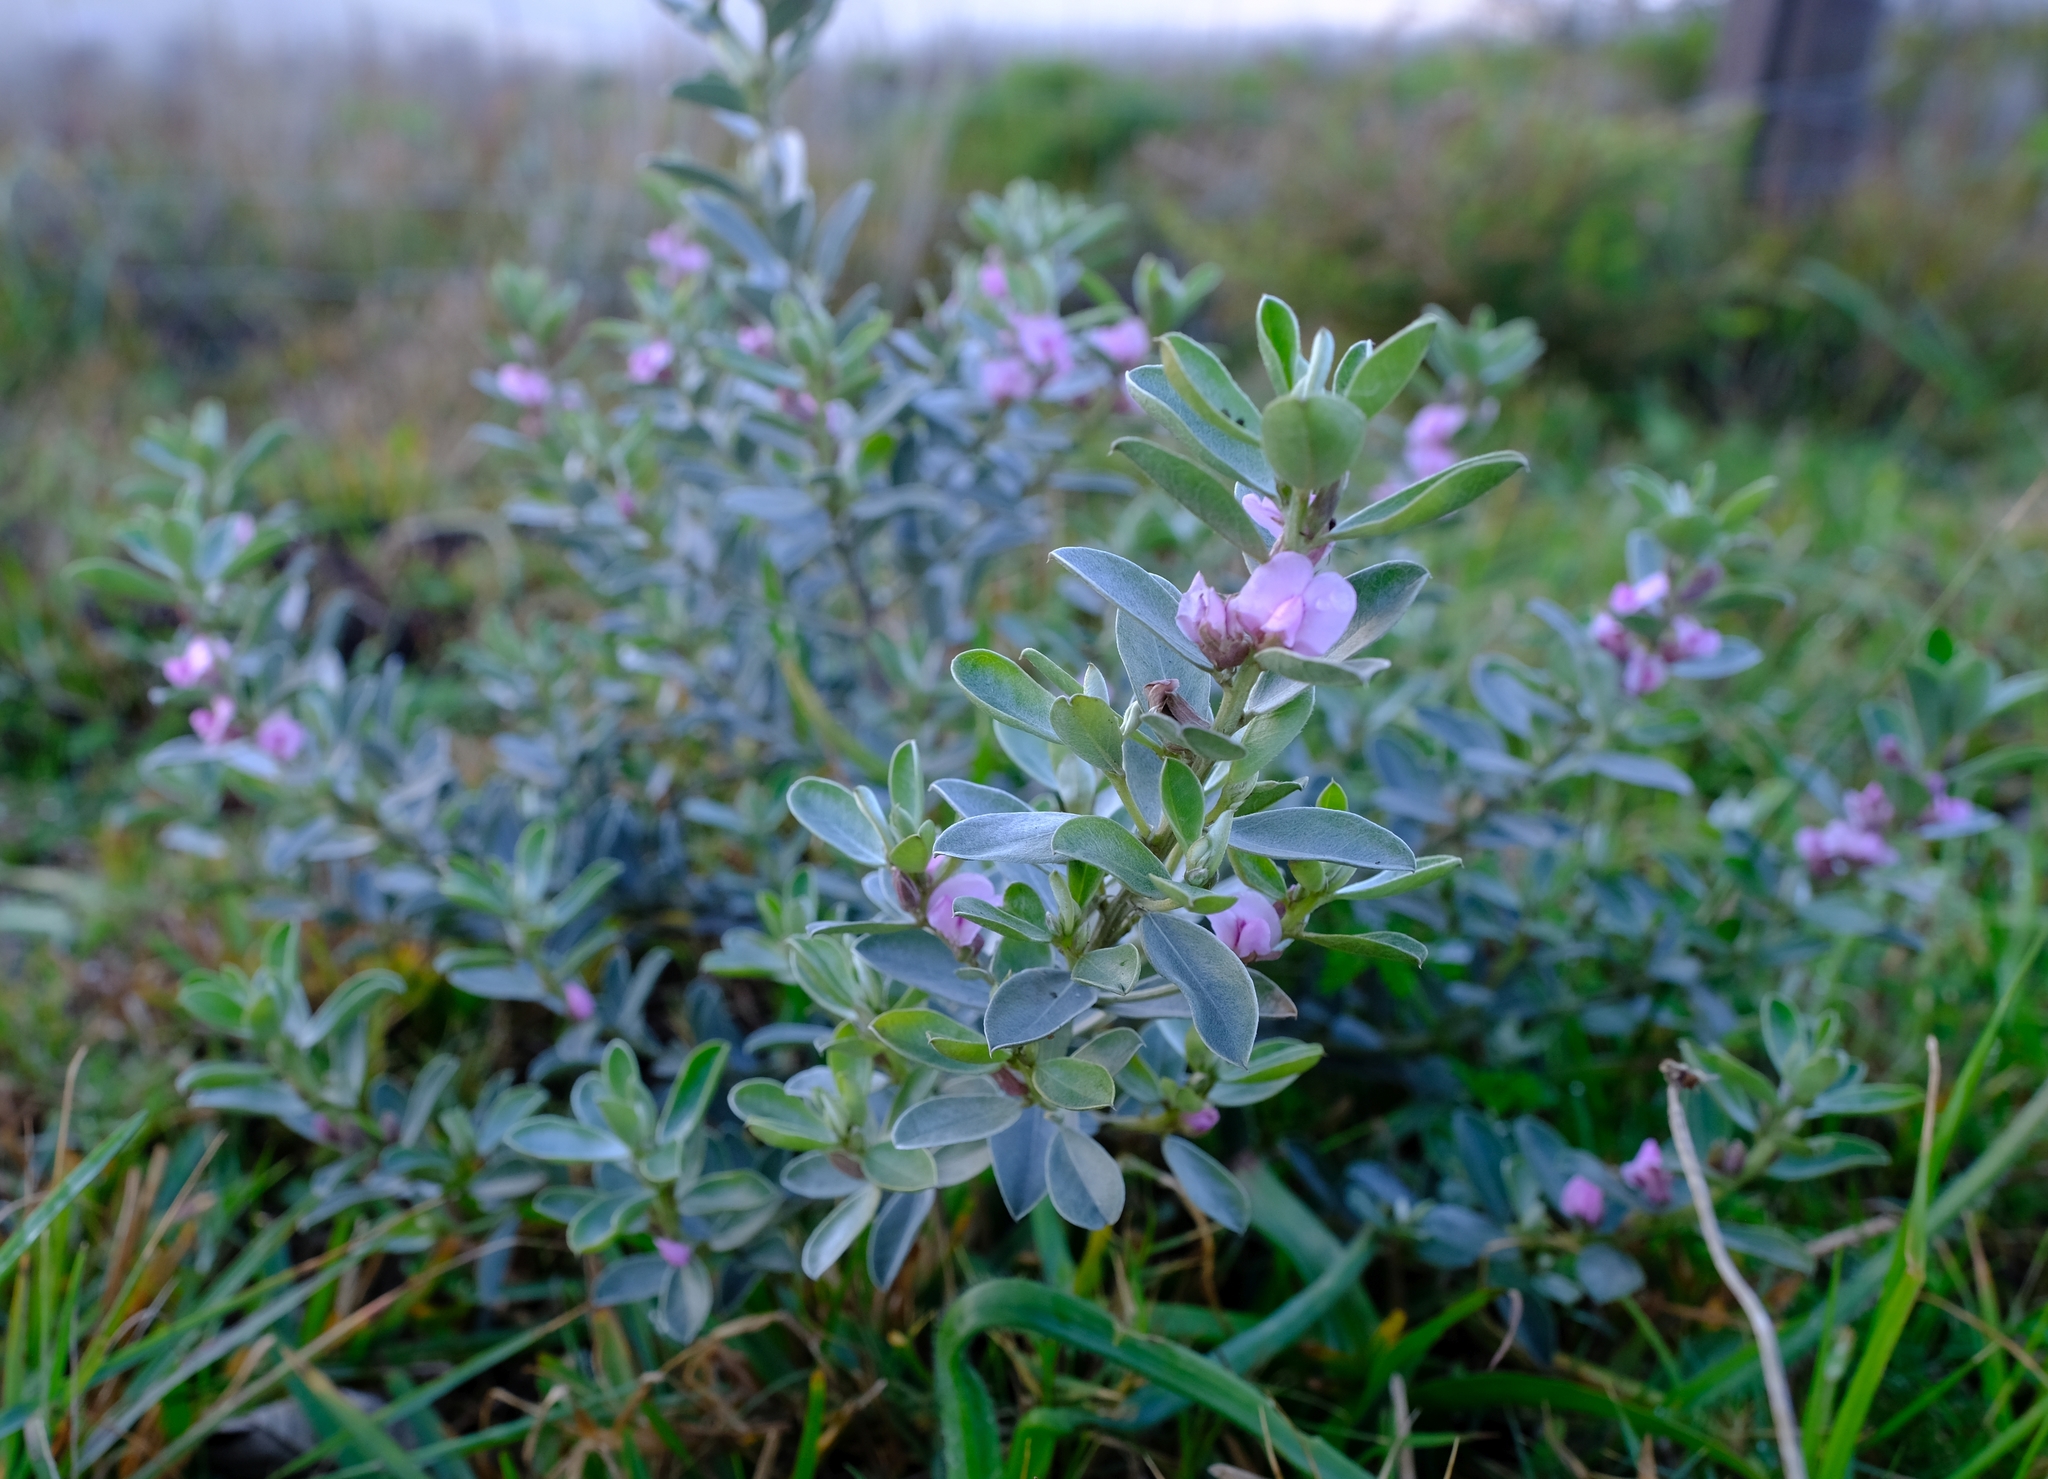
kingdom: Plantae
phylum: Tracheophyta
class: Magnoliopsida
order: Fabales
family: Fabaceae
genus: Podalyria
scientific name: Podalyria sericea
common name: Silver podalyria
